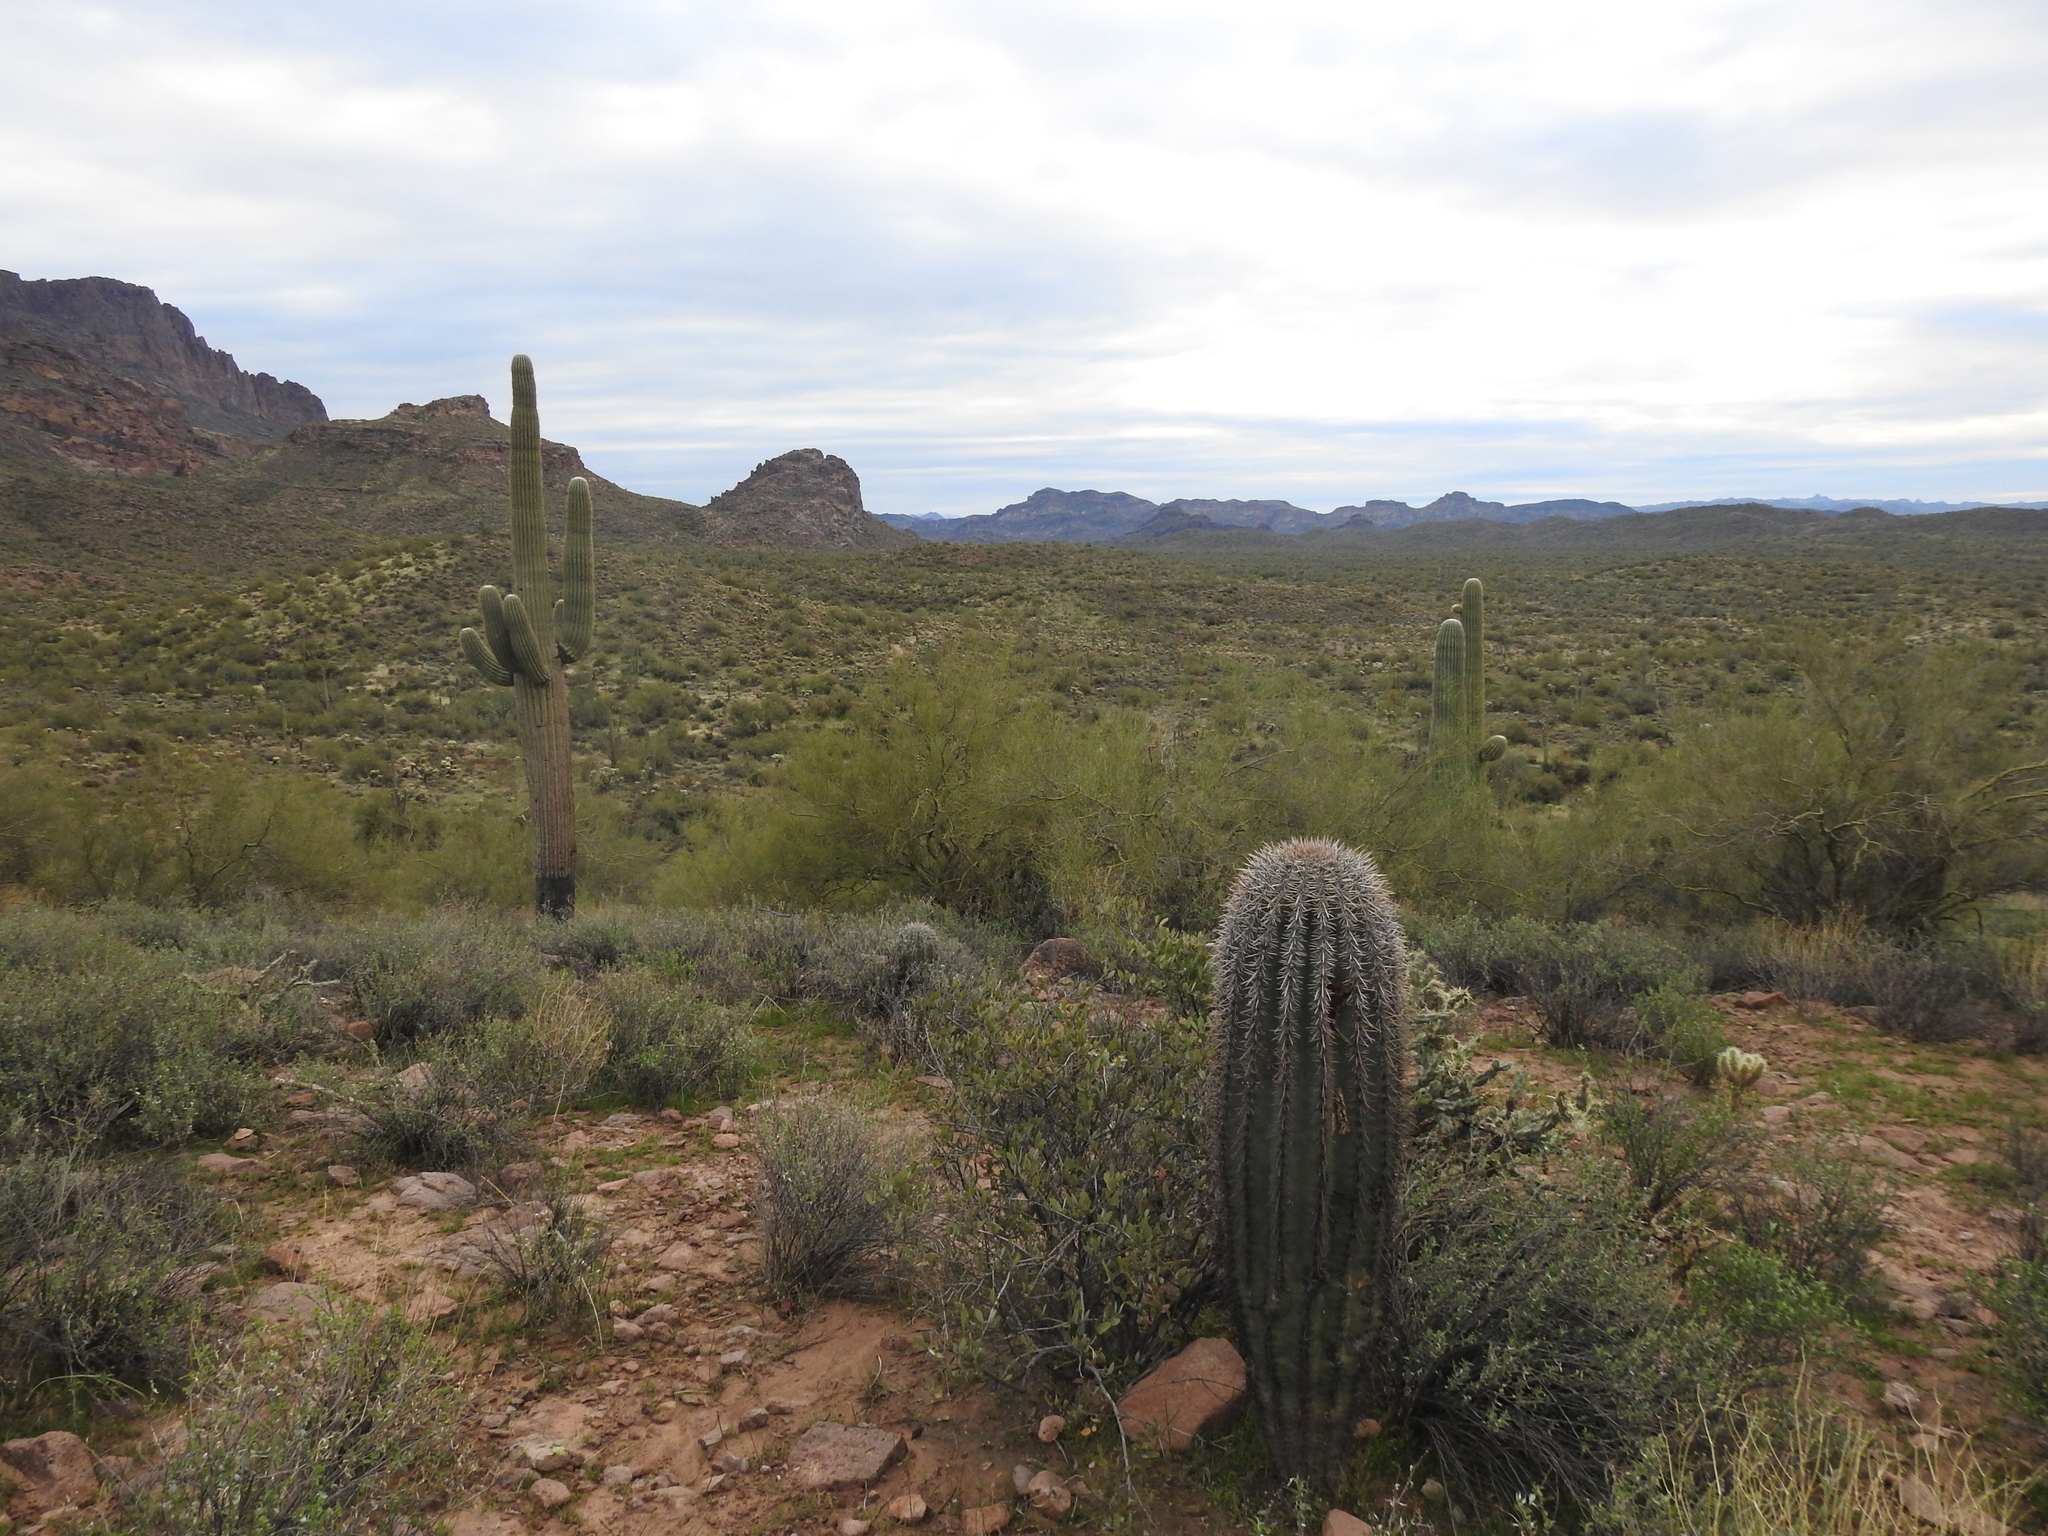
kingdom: Plantae
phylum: Tracheophyta
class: Magnoliopsida
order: Caryophyllales
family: Cactaceae
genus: Carnegiea
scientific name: Carnegiea gigantea
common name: Saguaro
